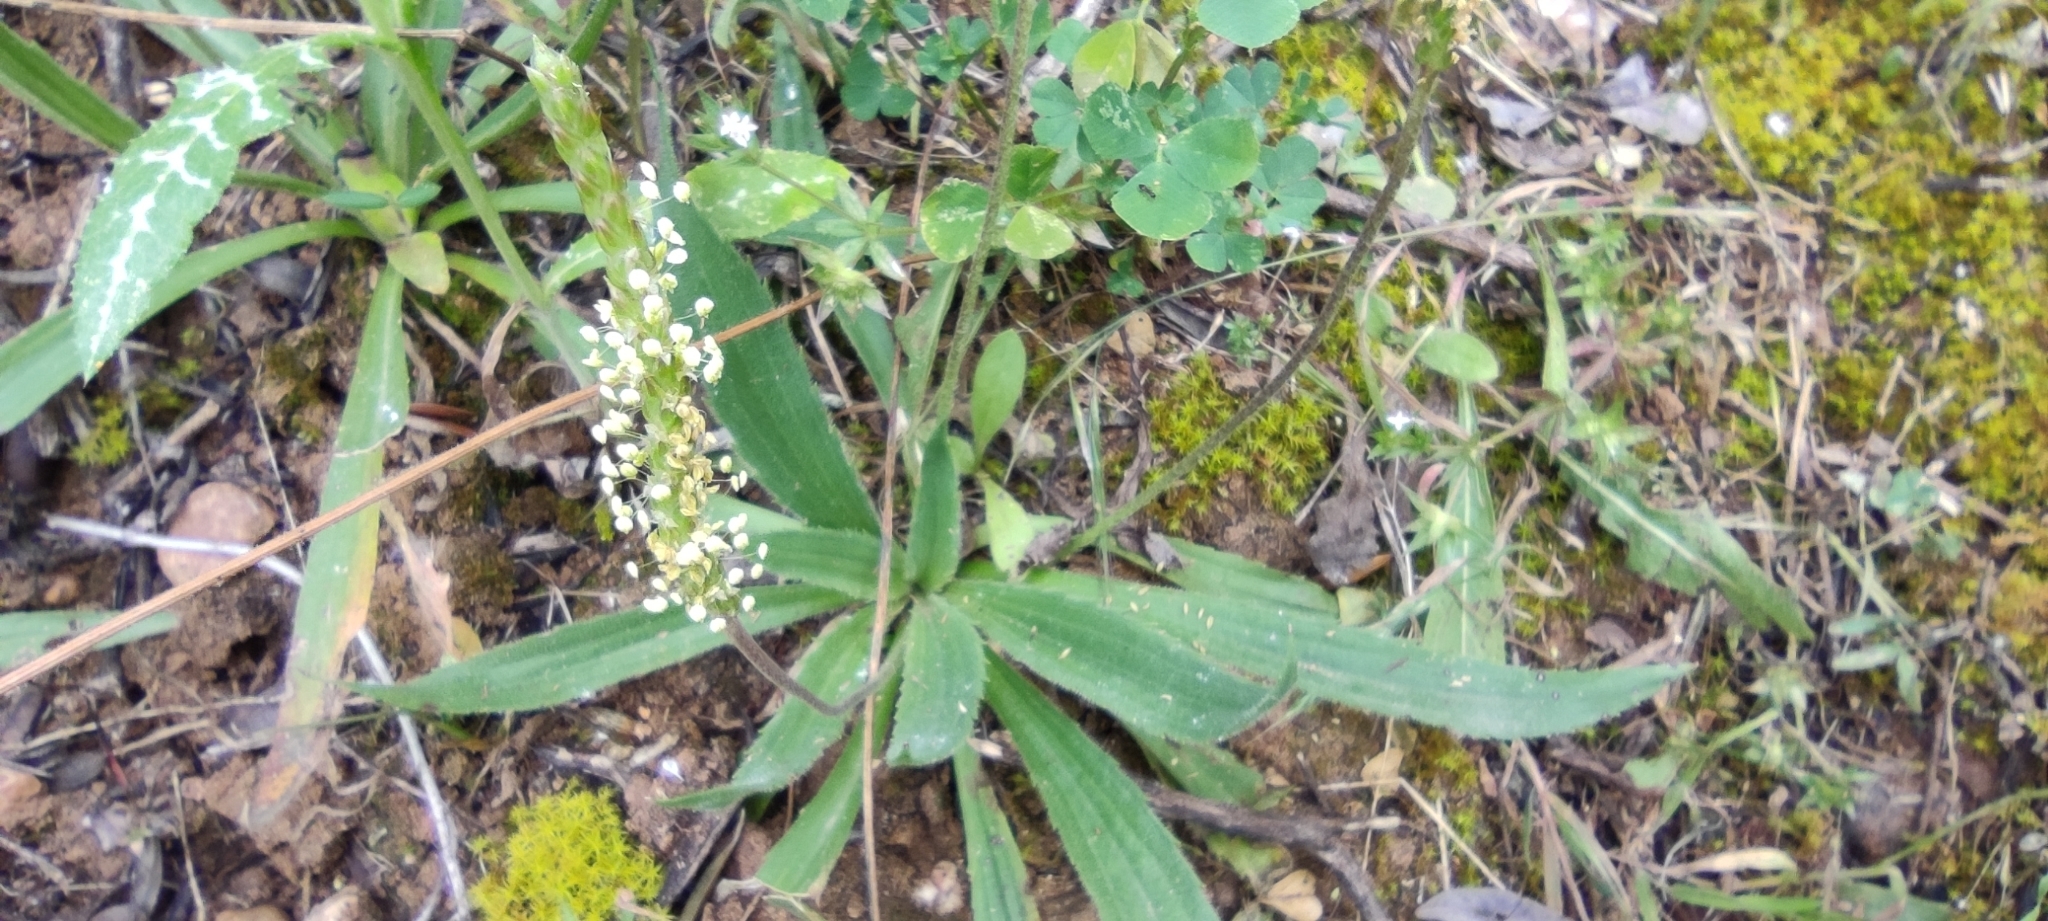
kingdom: Plantae
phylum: Tracheophyta
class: Magnoliopsida
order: Lamiales
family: Plantaginaceae
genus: Plantago
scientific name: Plantago serraria
